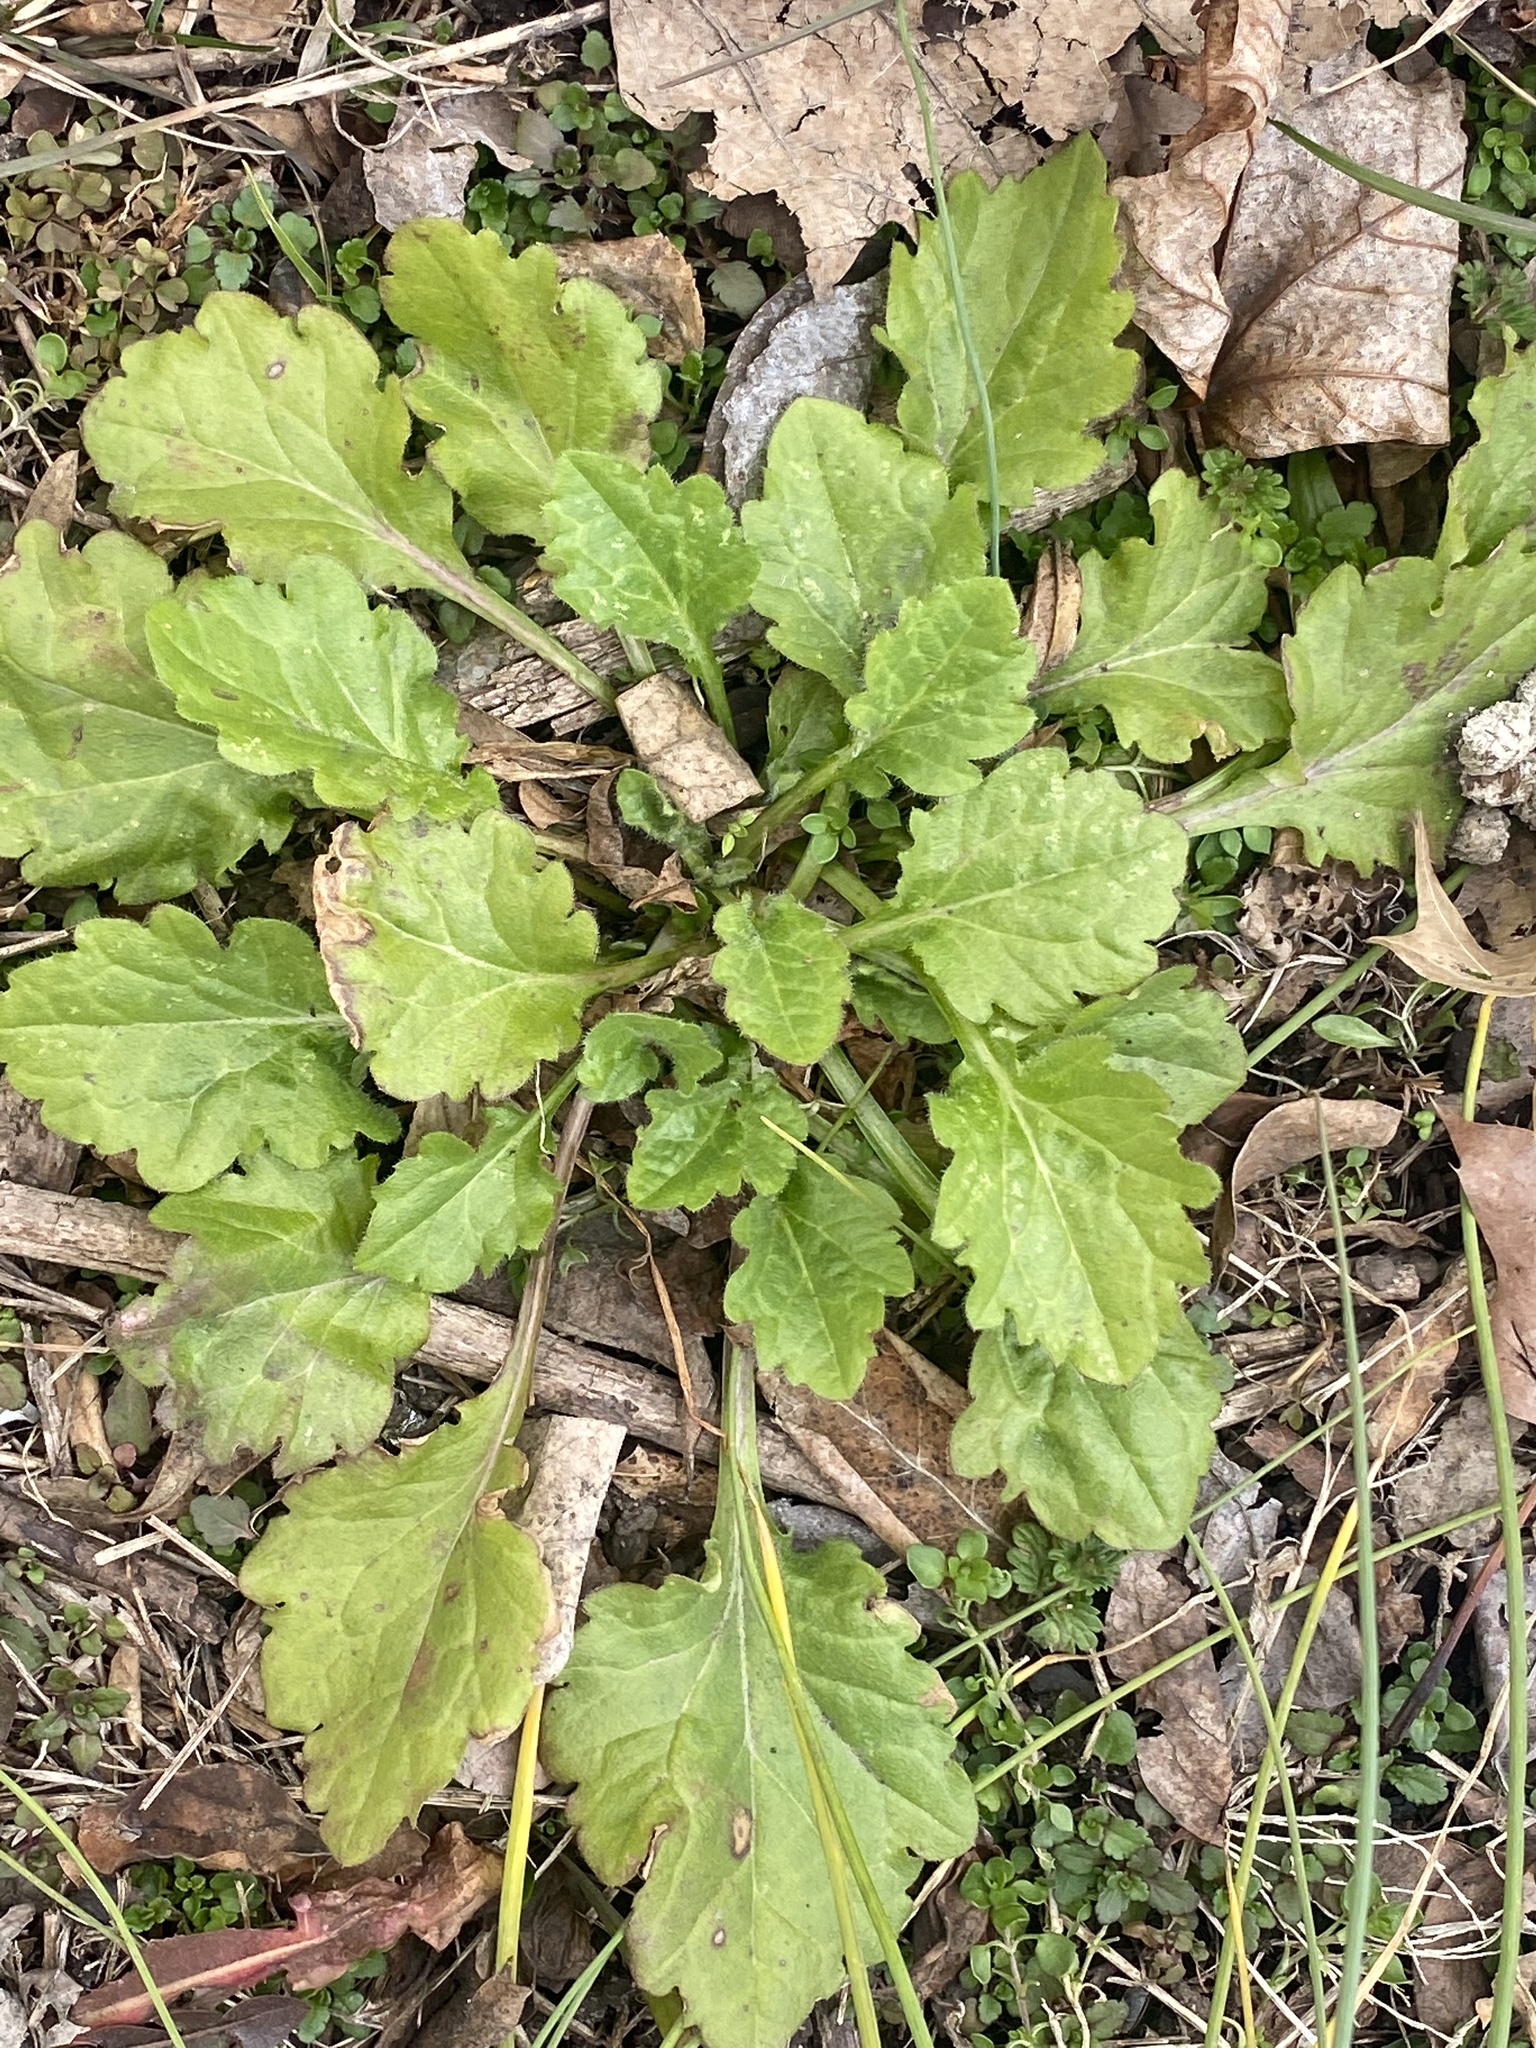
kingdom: Plantae
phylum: Tracheophyta
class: Magnoliopsida
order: Asterales
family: Asteraceae
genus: Erigeron
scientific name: Erigeron annuus
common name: Tall fleabane
